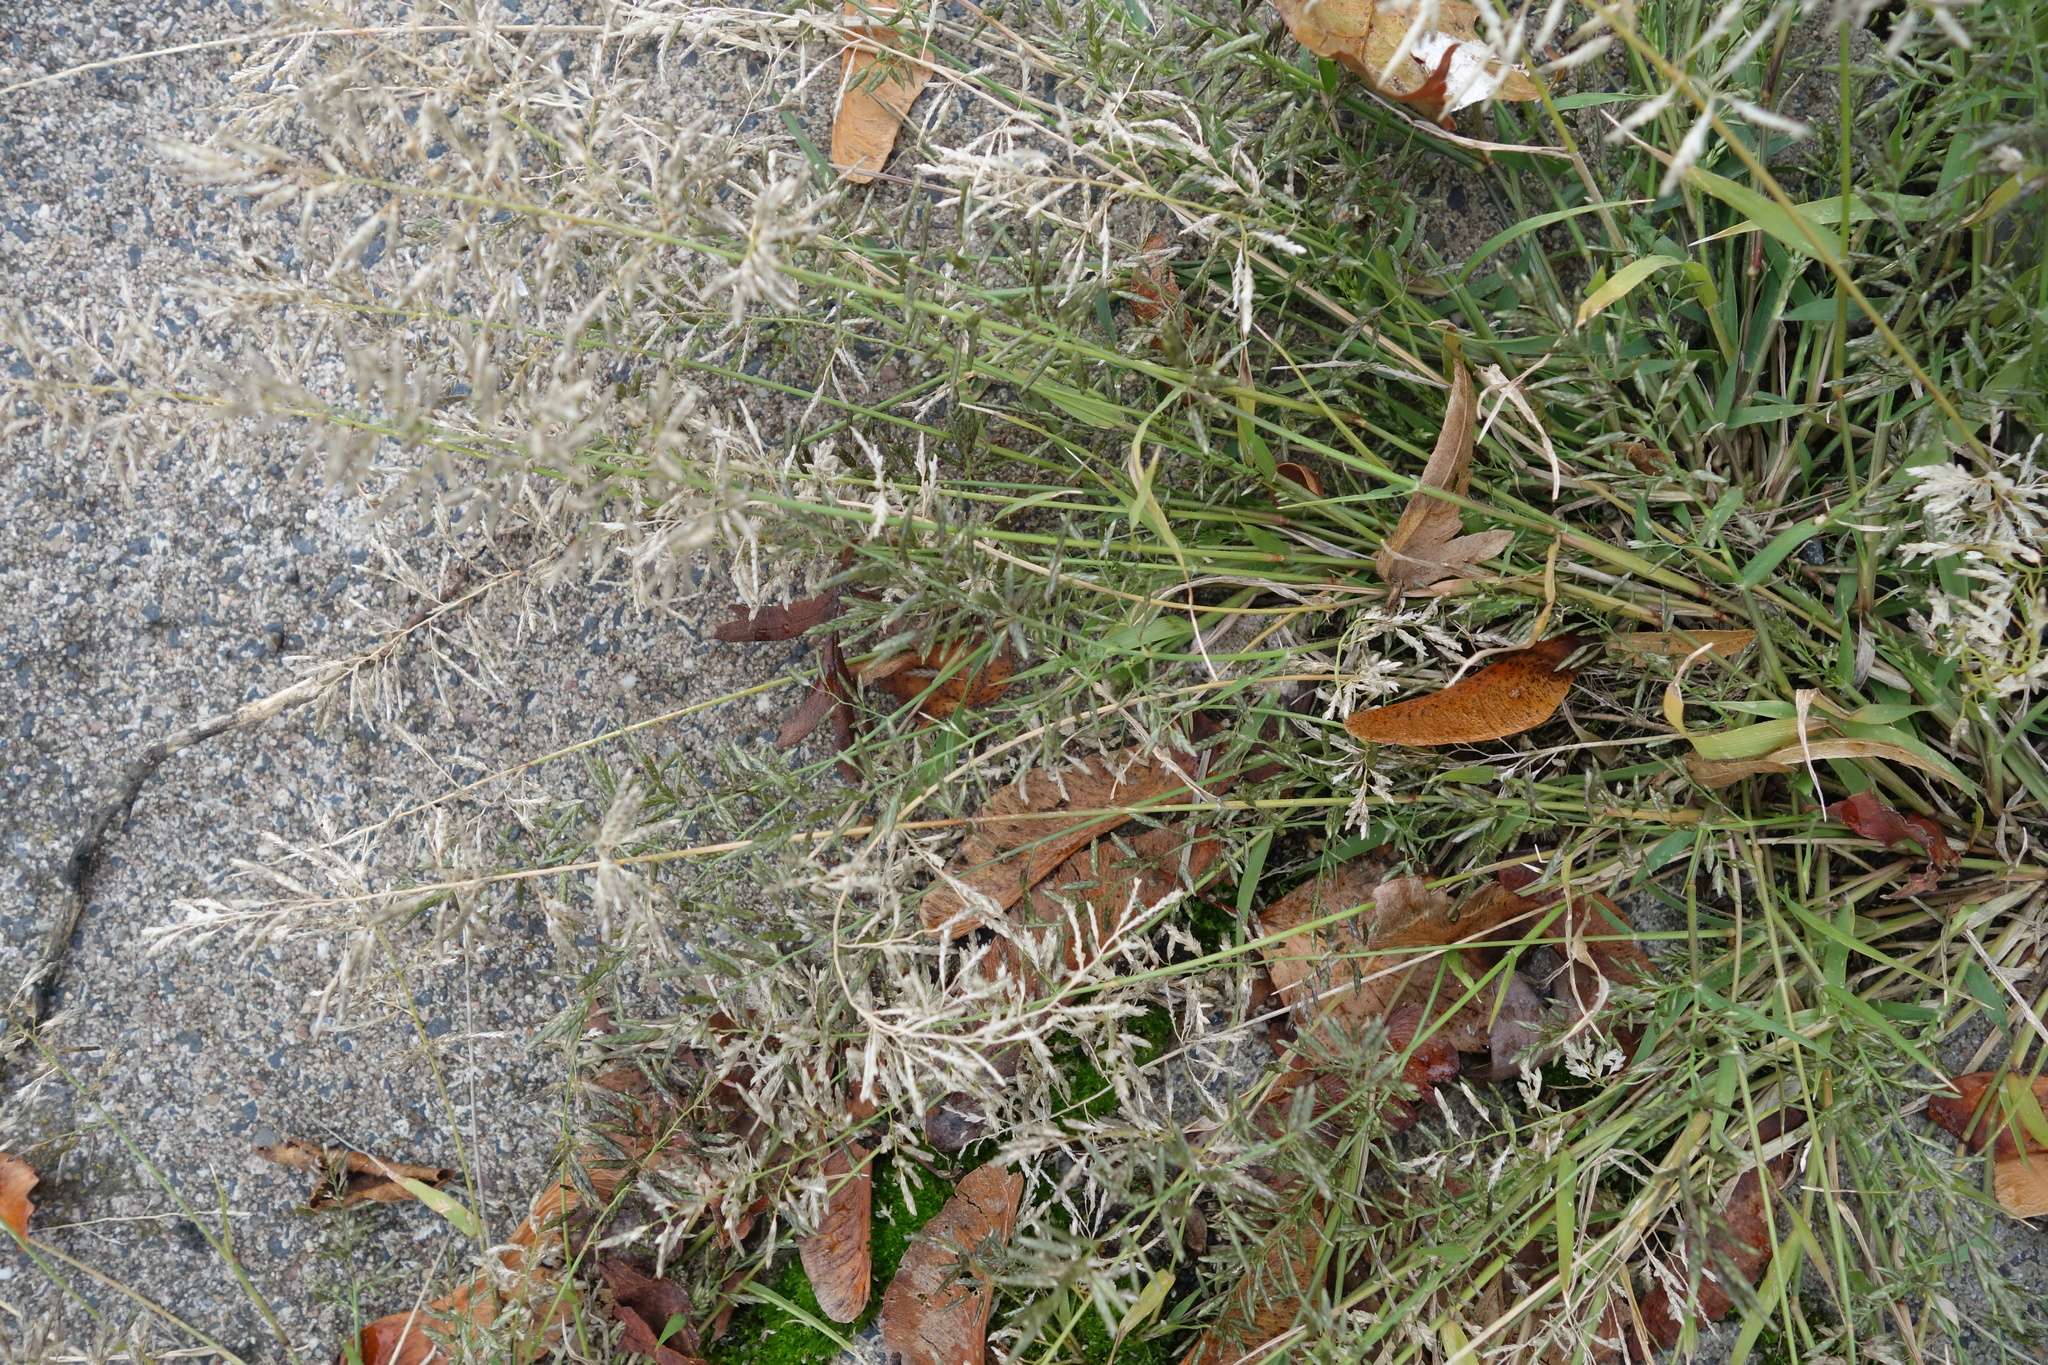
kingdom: Plantae
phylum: Tracheophyta
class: Liliopsida
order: Poales
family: Poaceae
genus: Eragrostis
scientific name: Eragrostis minor
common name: Small love-grass
